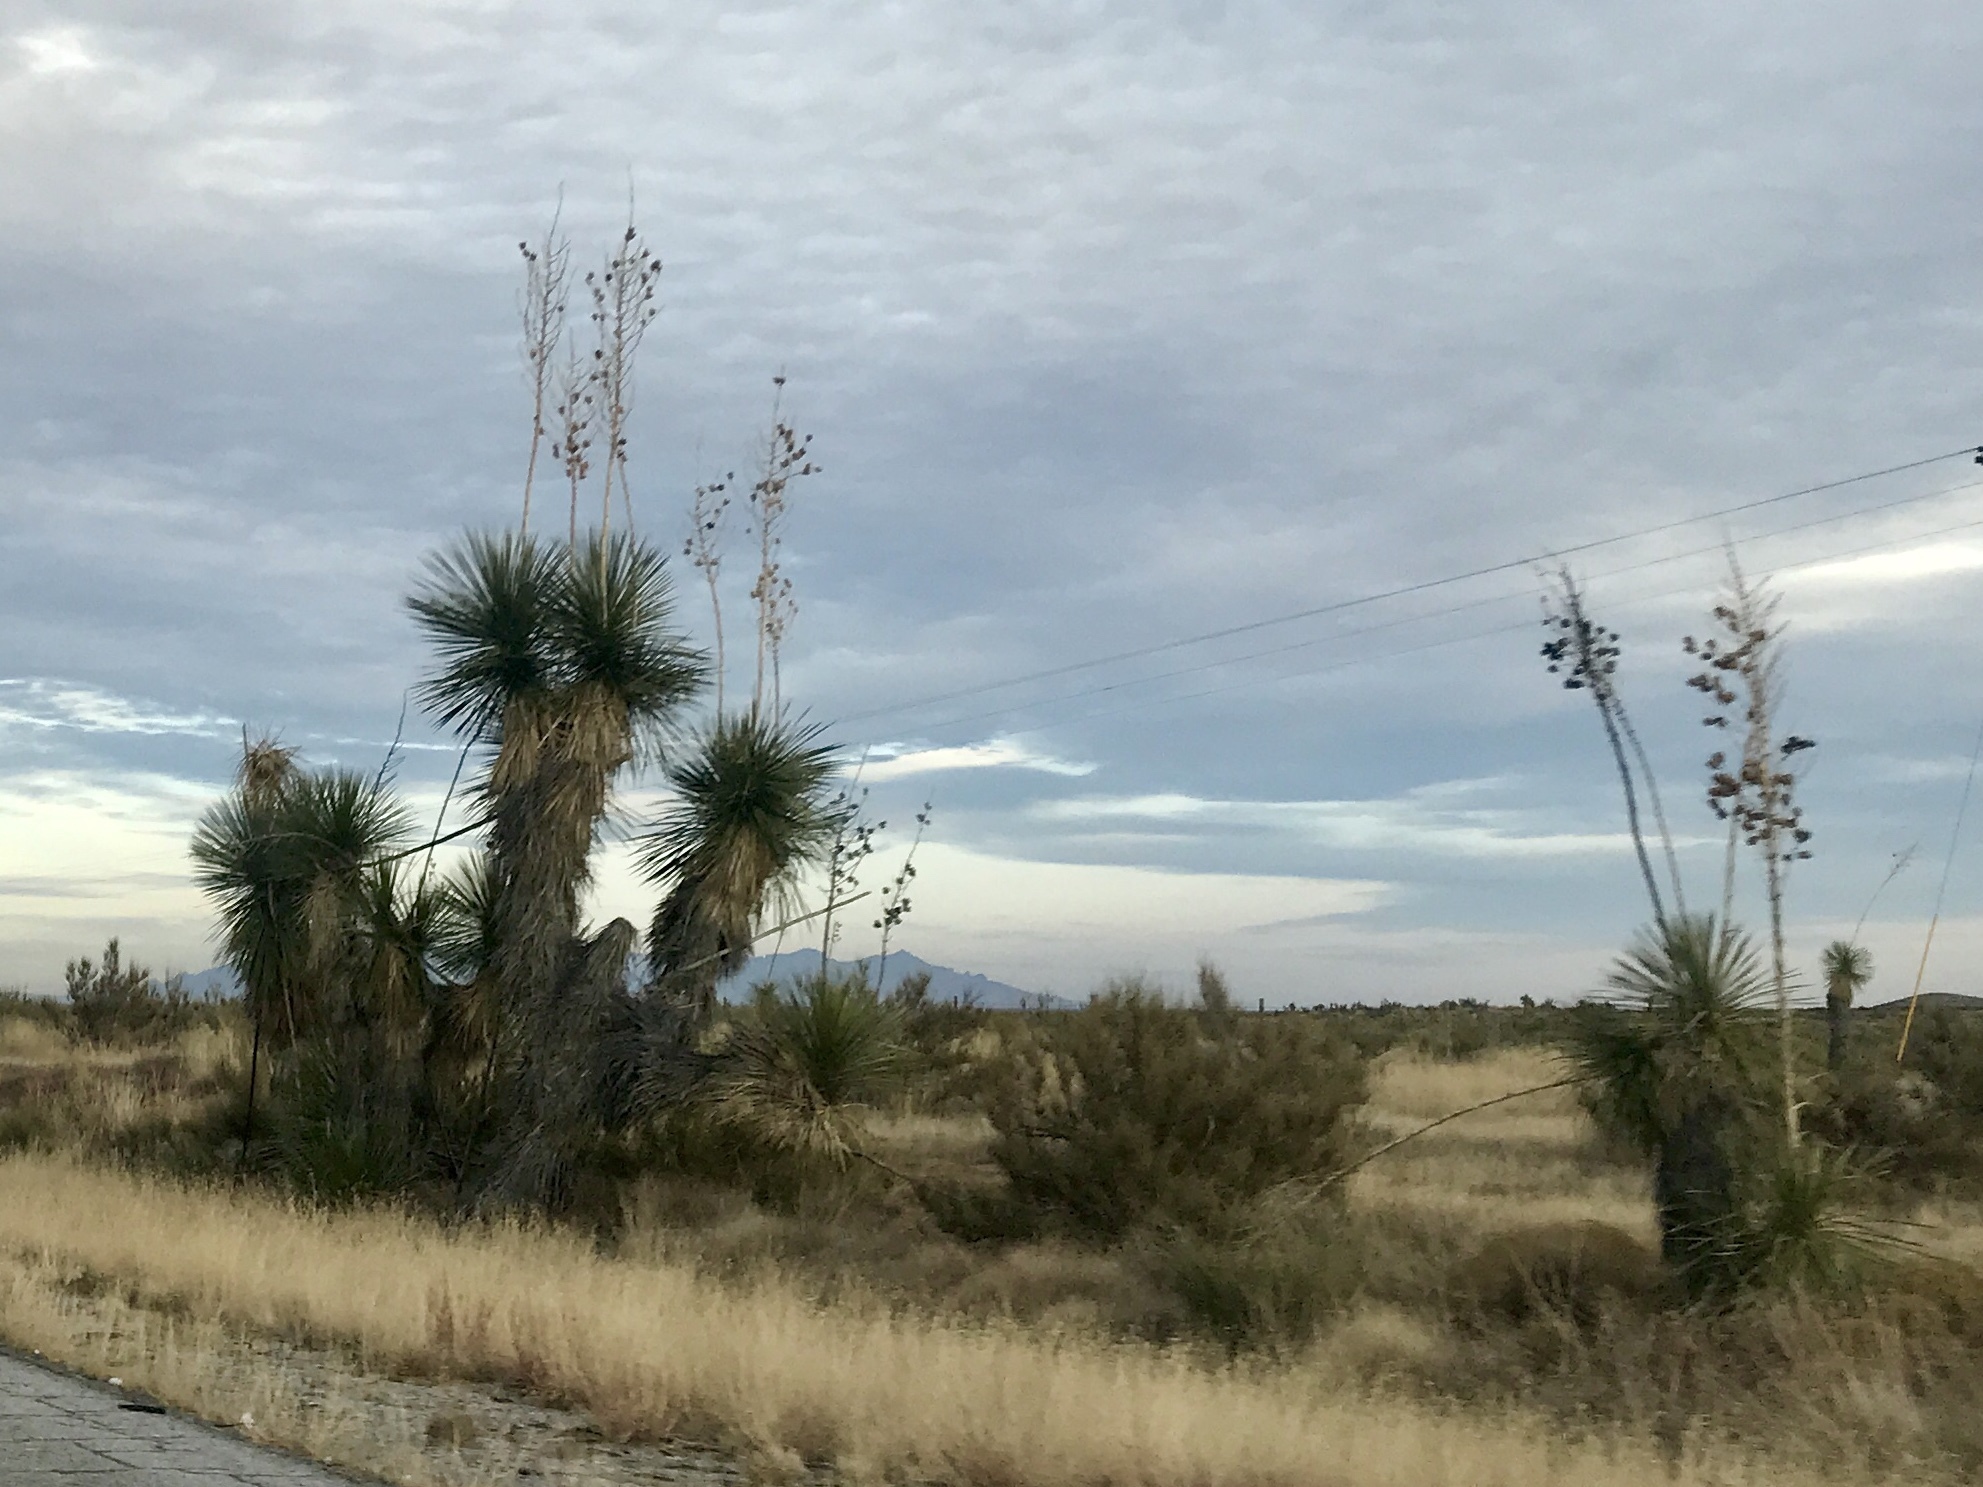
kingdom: Plantae
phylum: Tracheophyta
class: Liliopsida
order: Asparagales
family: Asparagaceae
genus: Yucca
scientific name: Yucca elata
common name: Palmella
